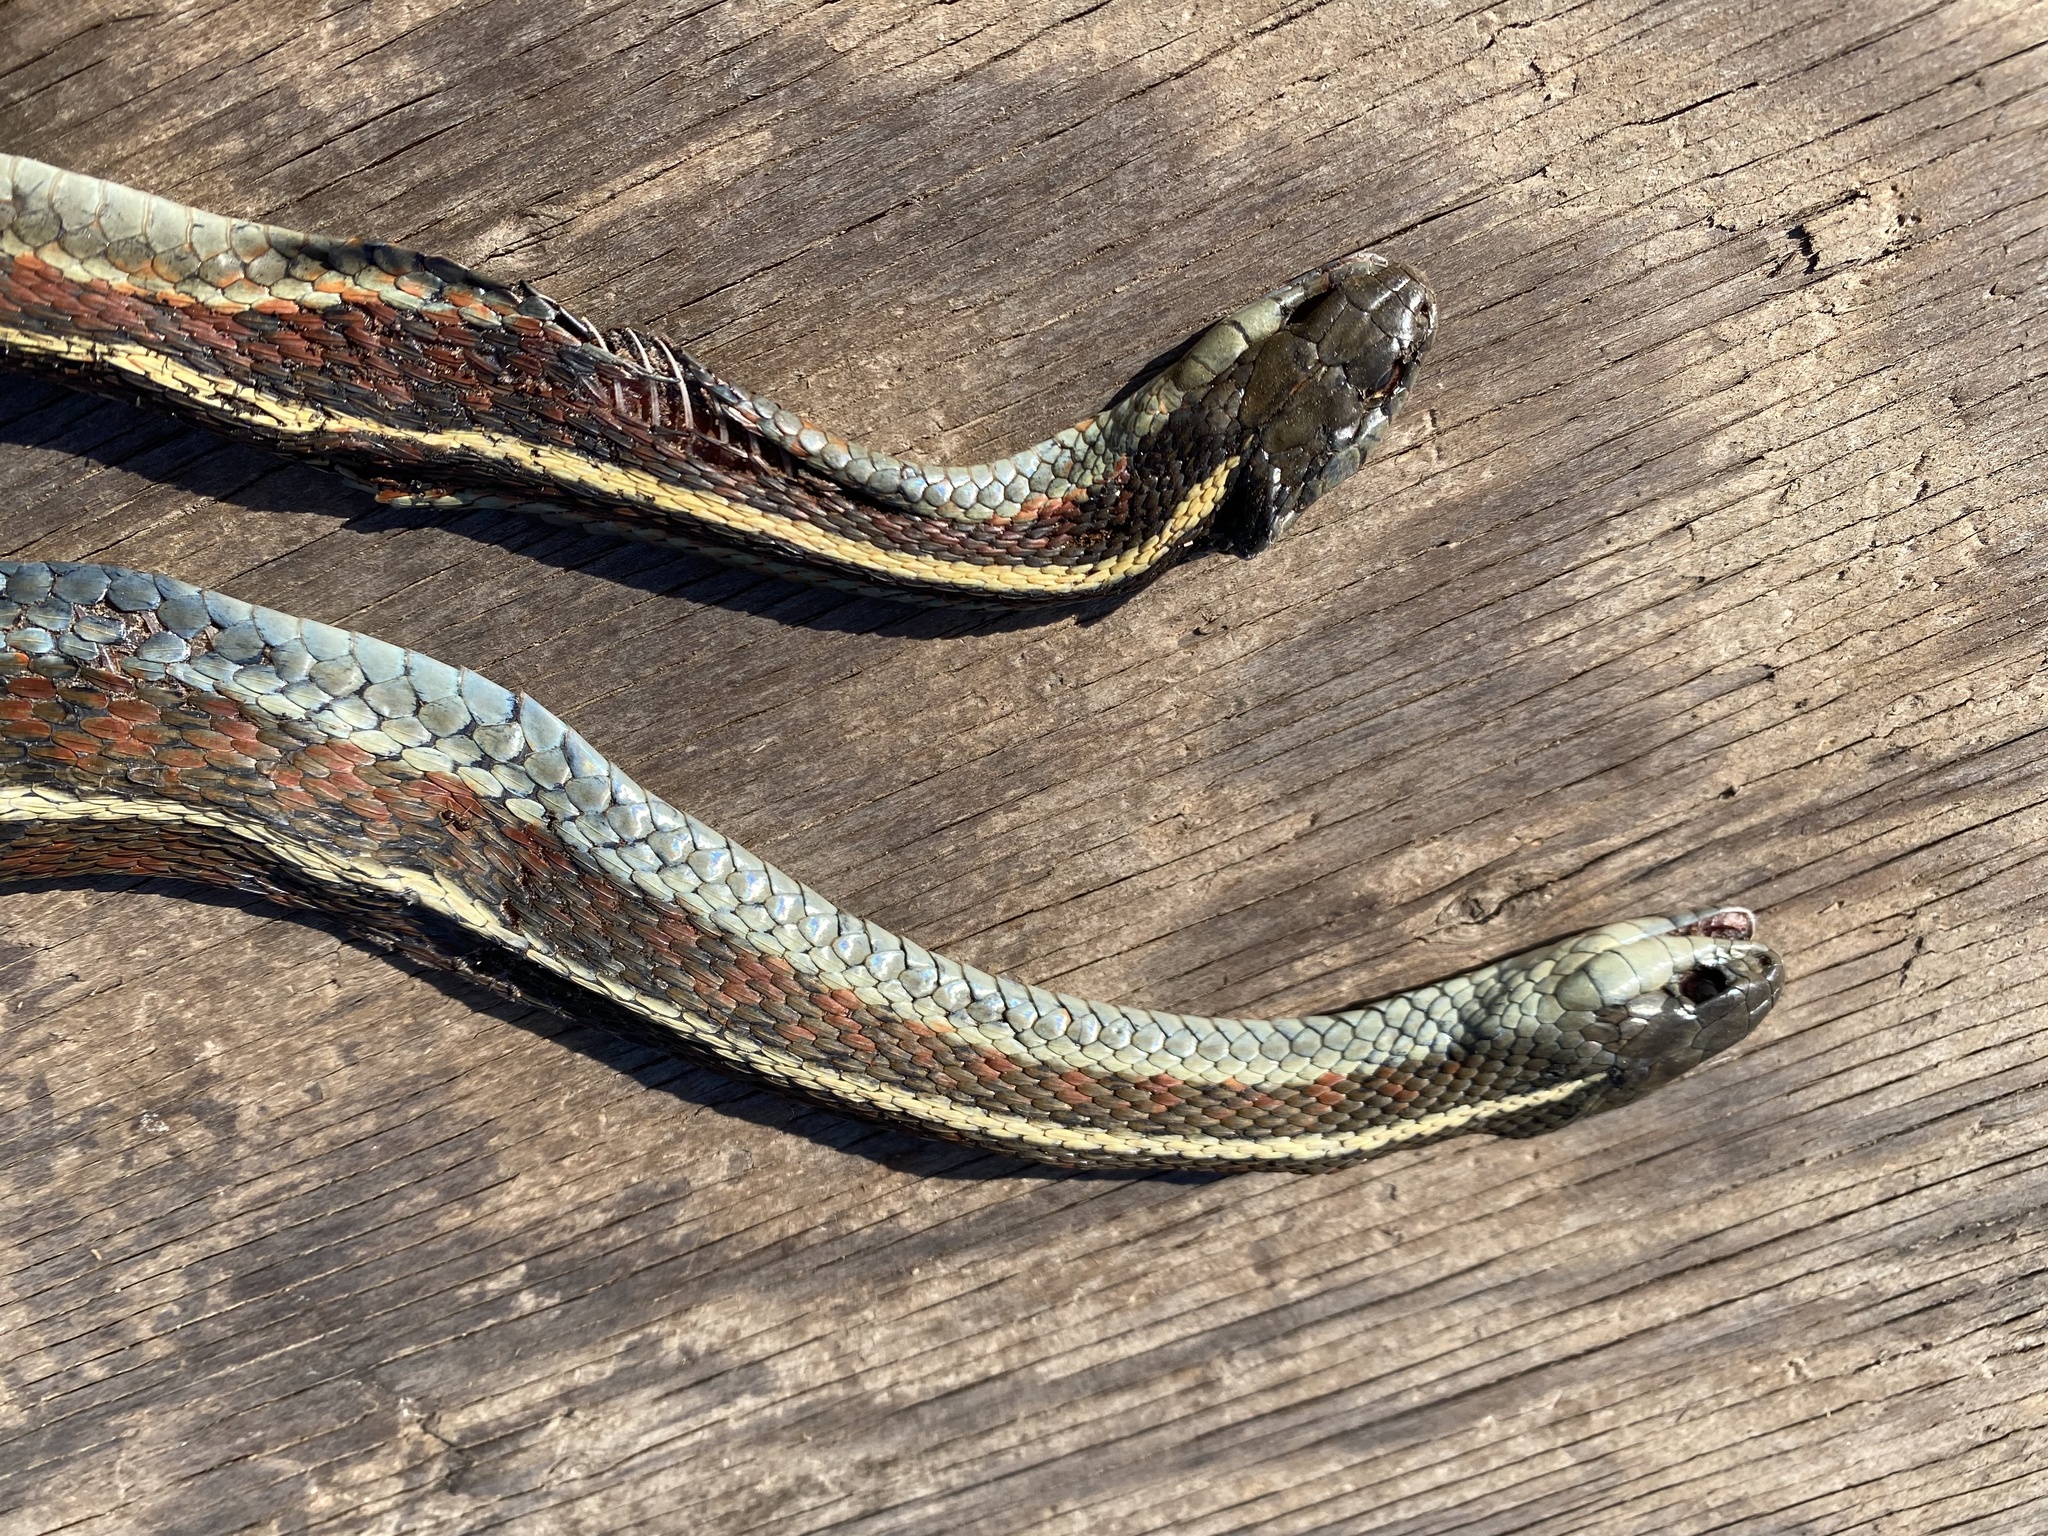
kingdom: Animalia
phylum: Chordata
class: Squamata
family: Colubridae
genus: Thamnophis
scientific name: Thamnophis elegans
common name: Western terrestrial garter snake
